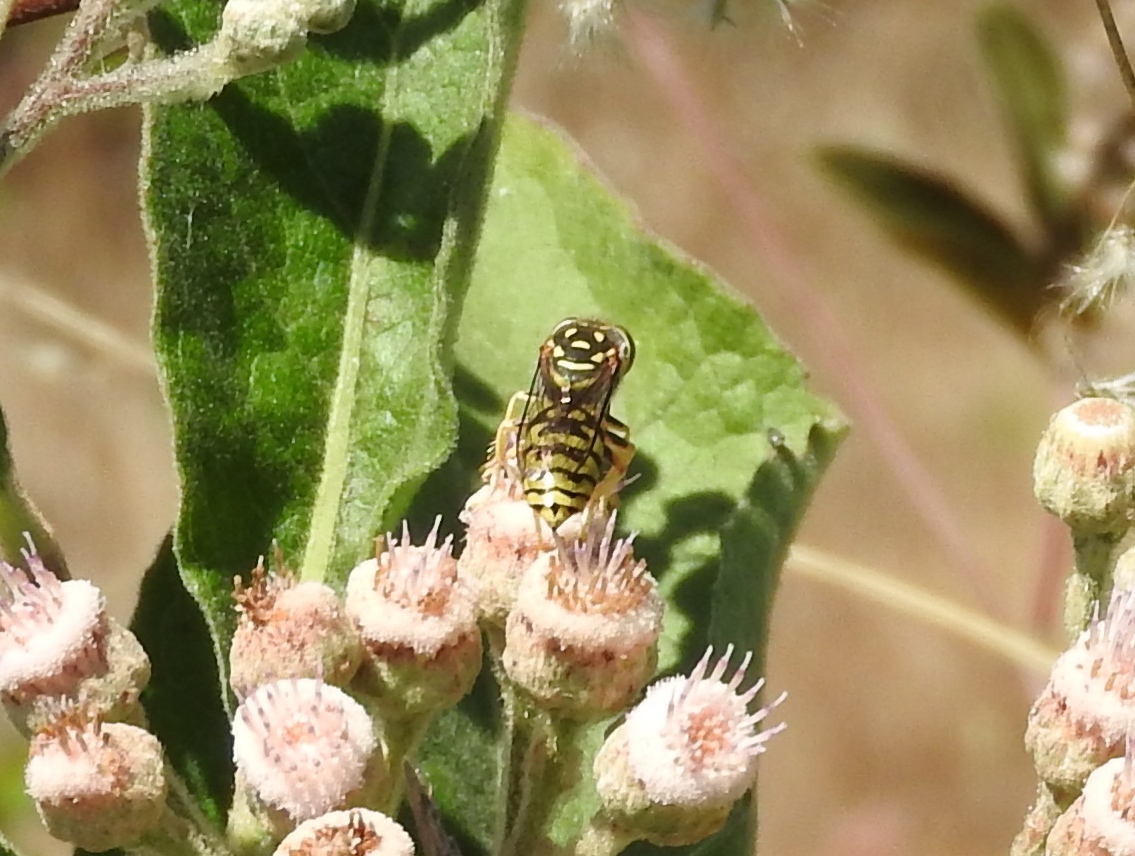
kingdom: Animalia
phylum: Arthropoda
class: Insecta
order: Hymenoptera
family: Crabronidae
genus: Glenostictia
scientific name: Glenostictia
